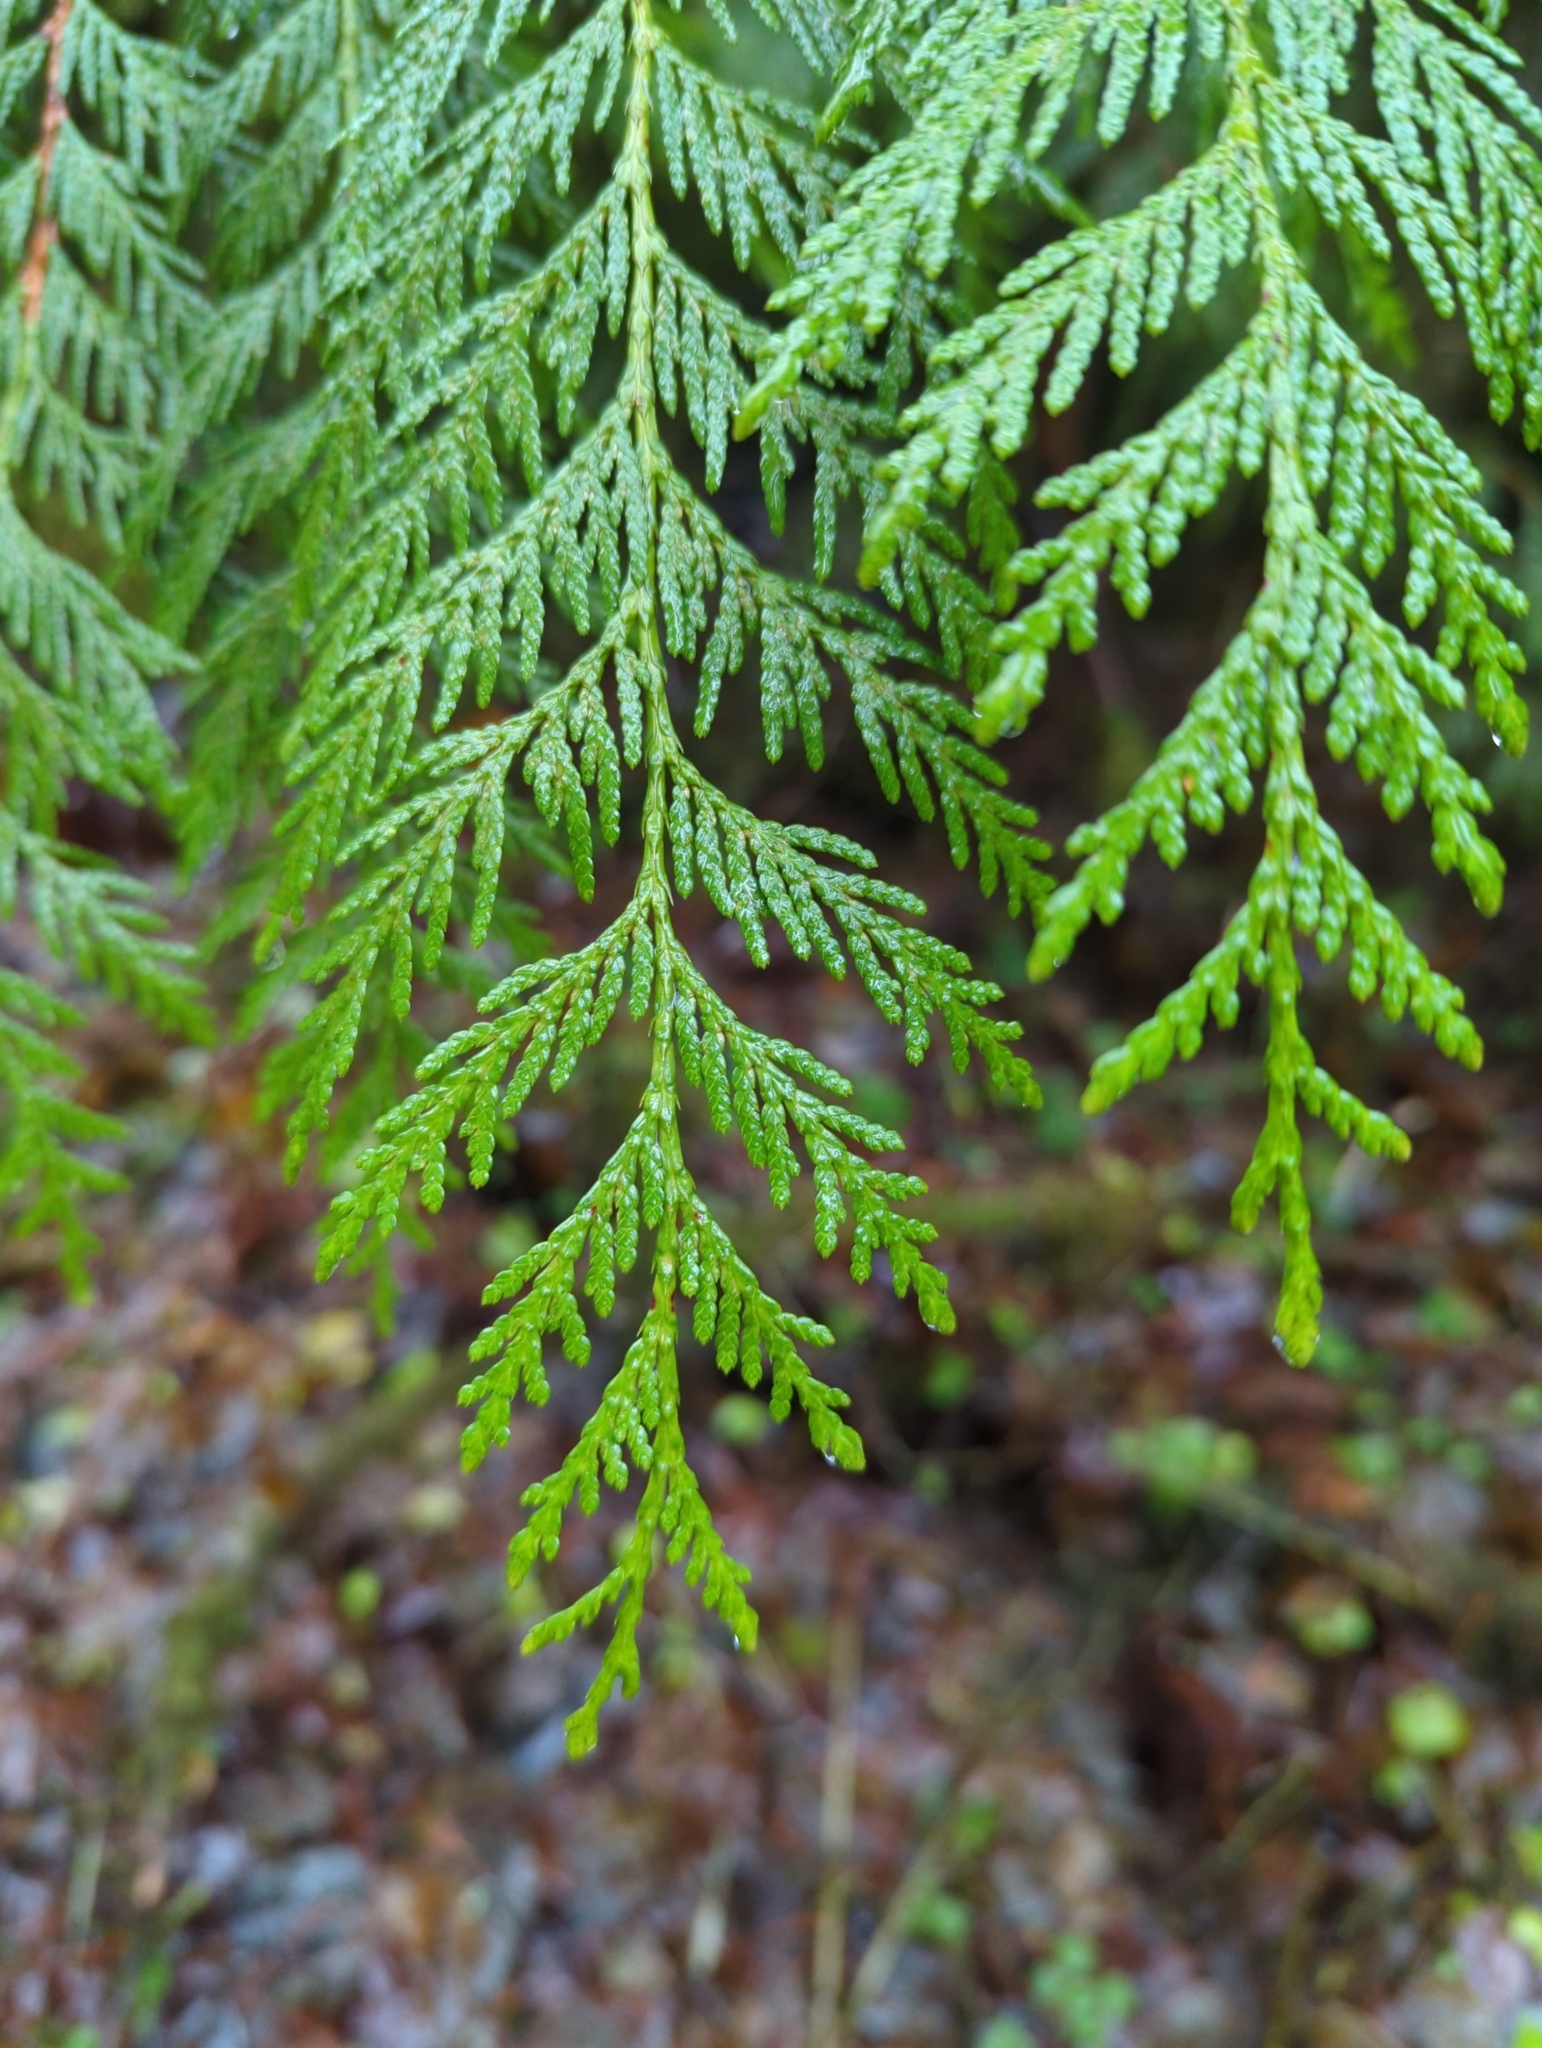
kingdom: Plantae
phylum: Tracheophyta
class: Pinopsida
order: Pinales
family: Cupressaceae
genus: Thuja
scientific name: Thuja plicata
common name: Western red-cedar
